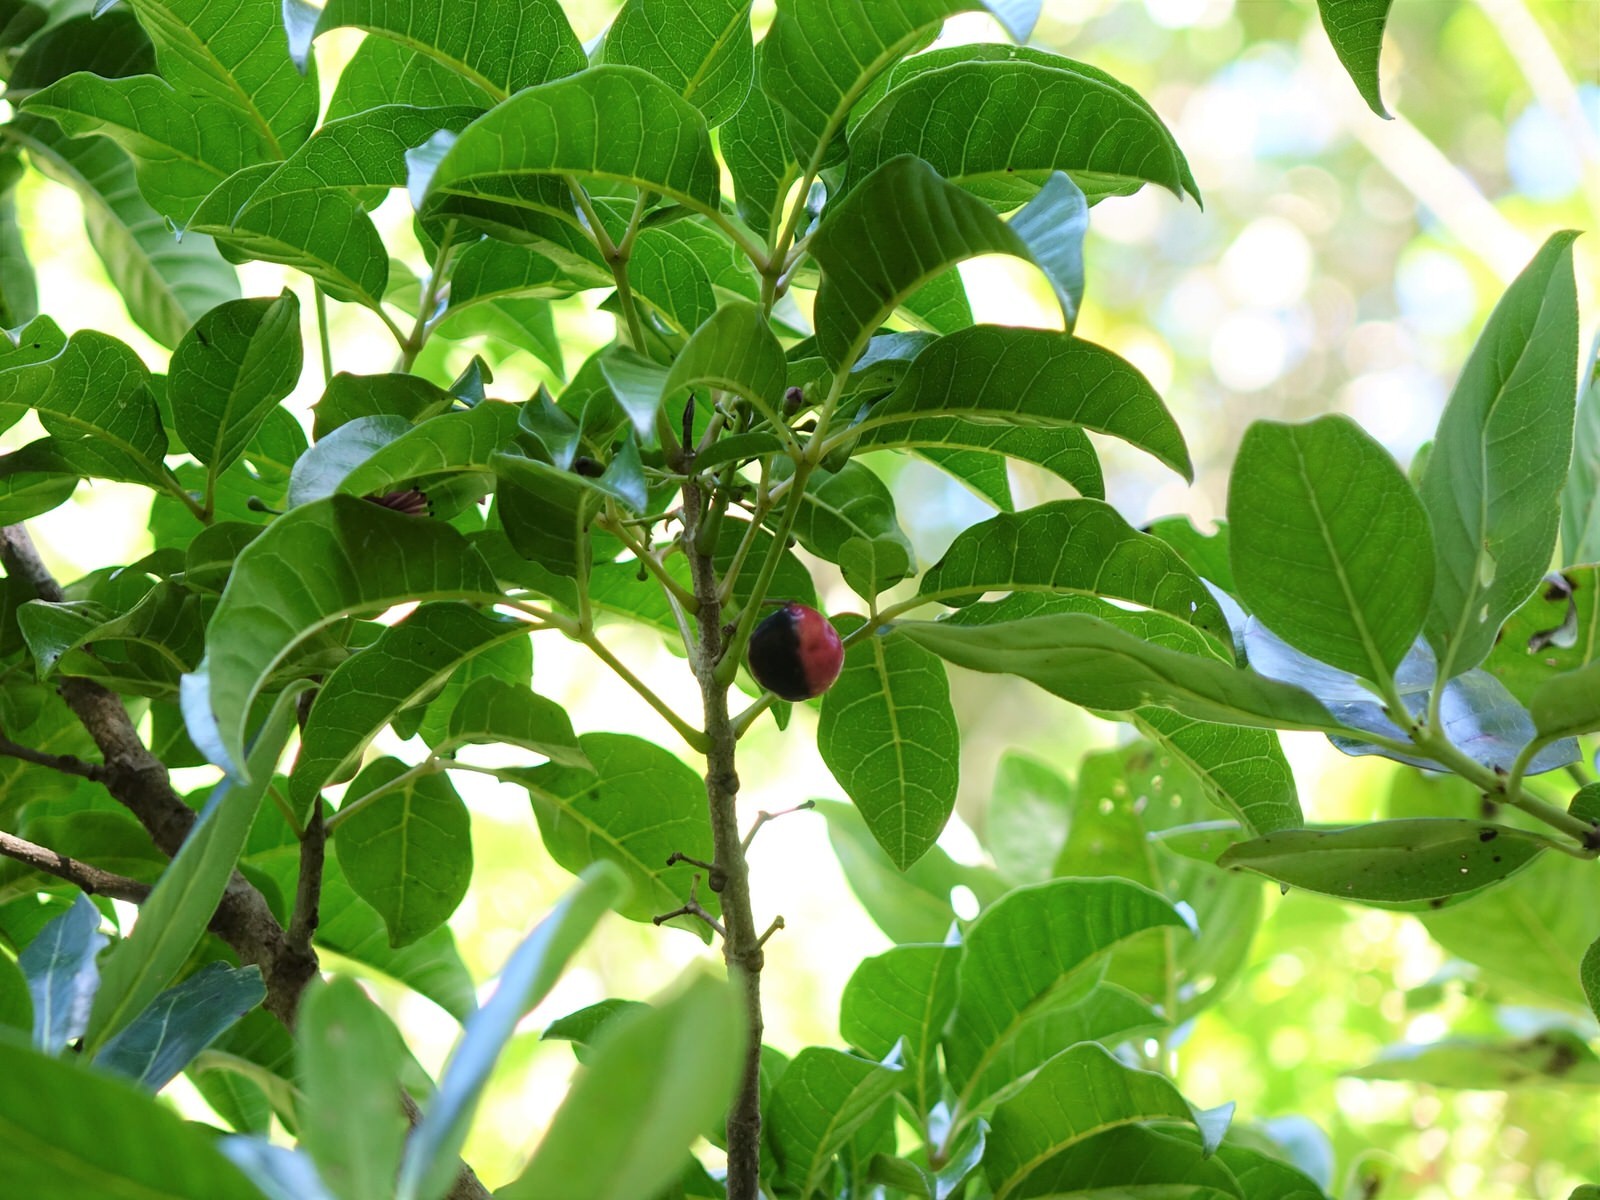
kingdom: Plantae
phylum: Tracheophyta
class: Magnoliopsida
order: Lamiales
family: Lamiaceae
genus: Vitex
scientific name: Vitex lucens
